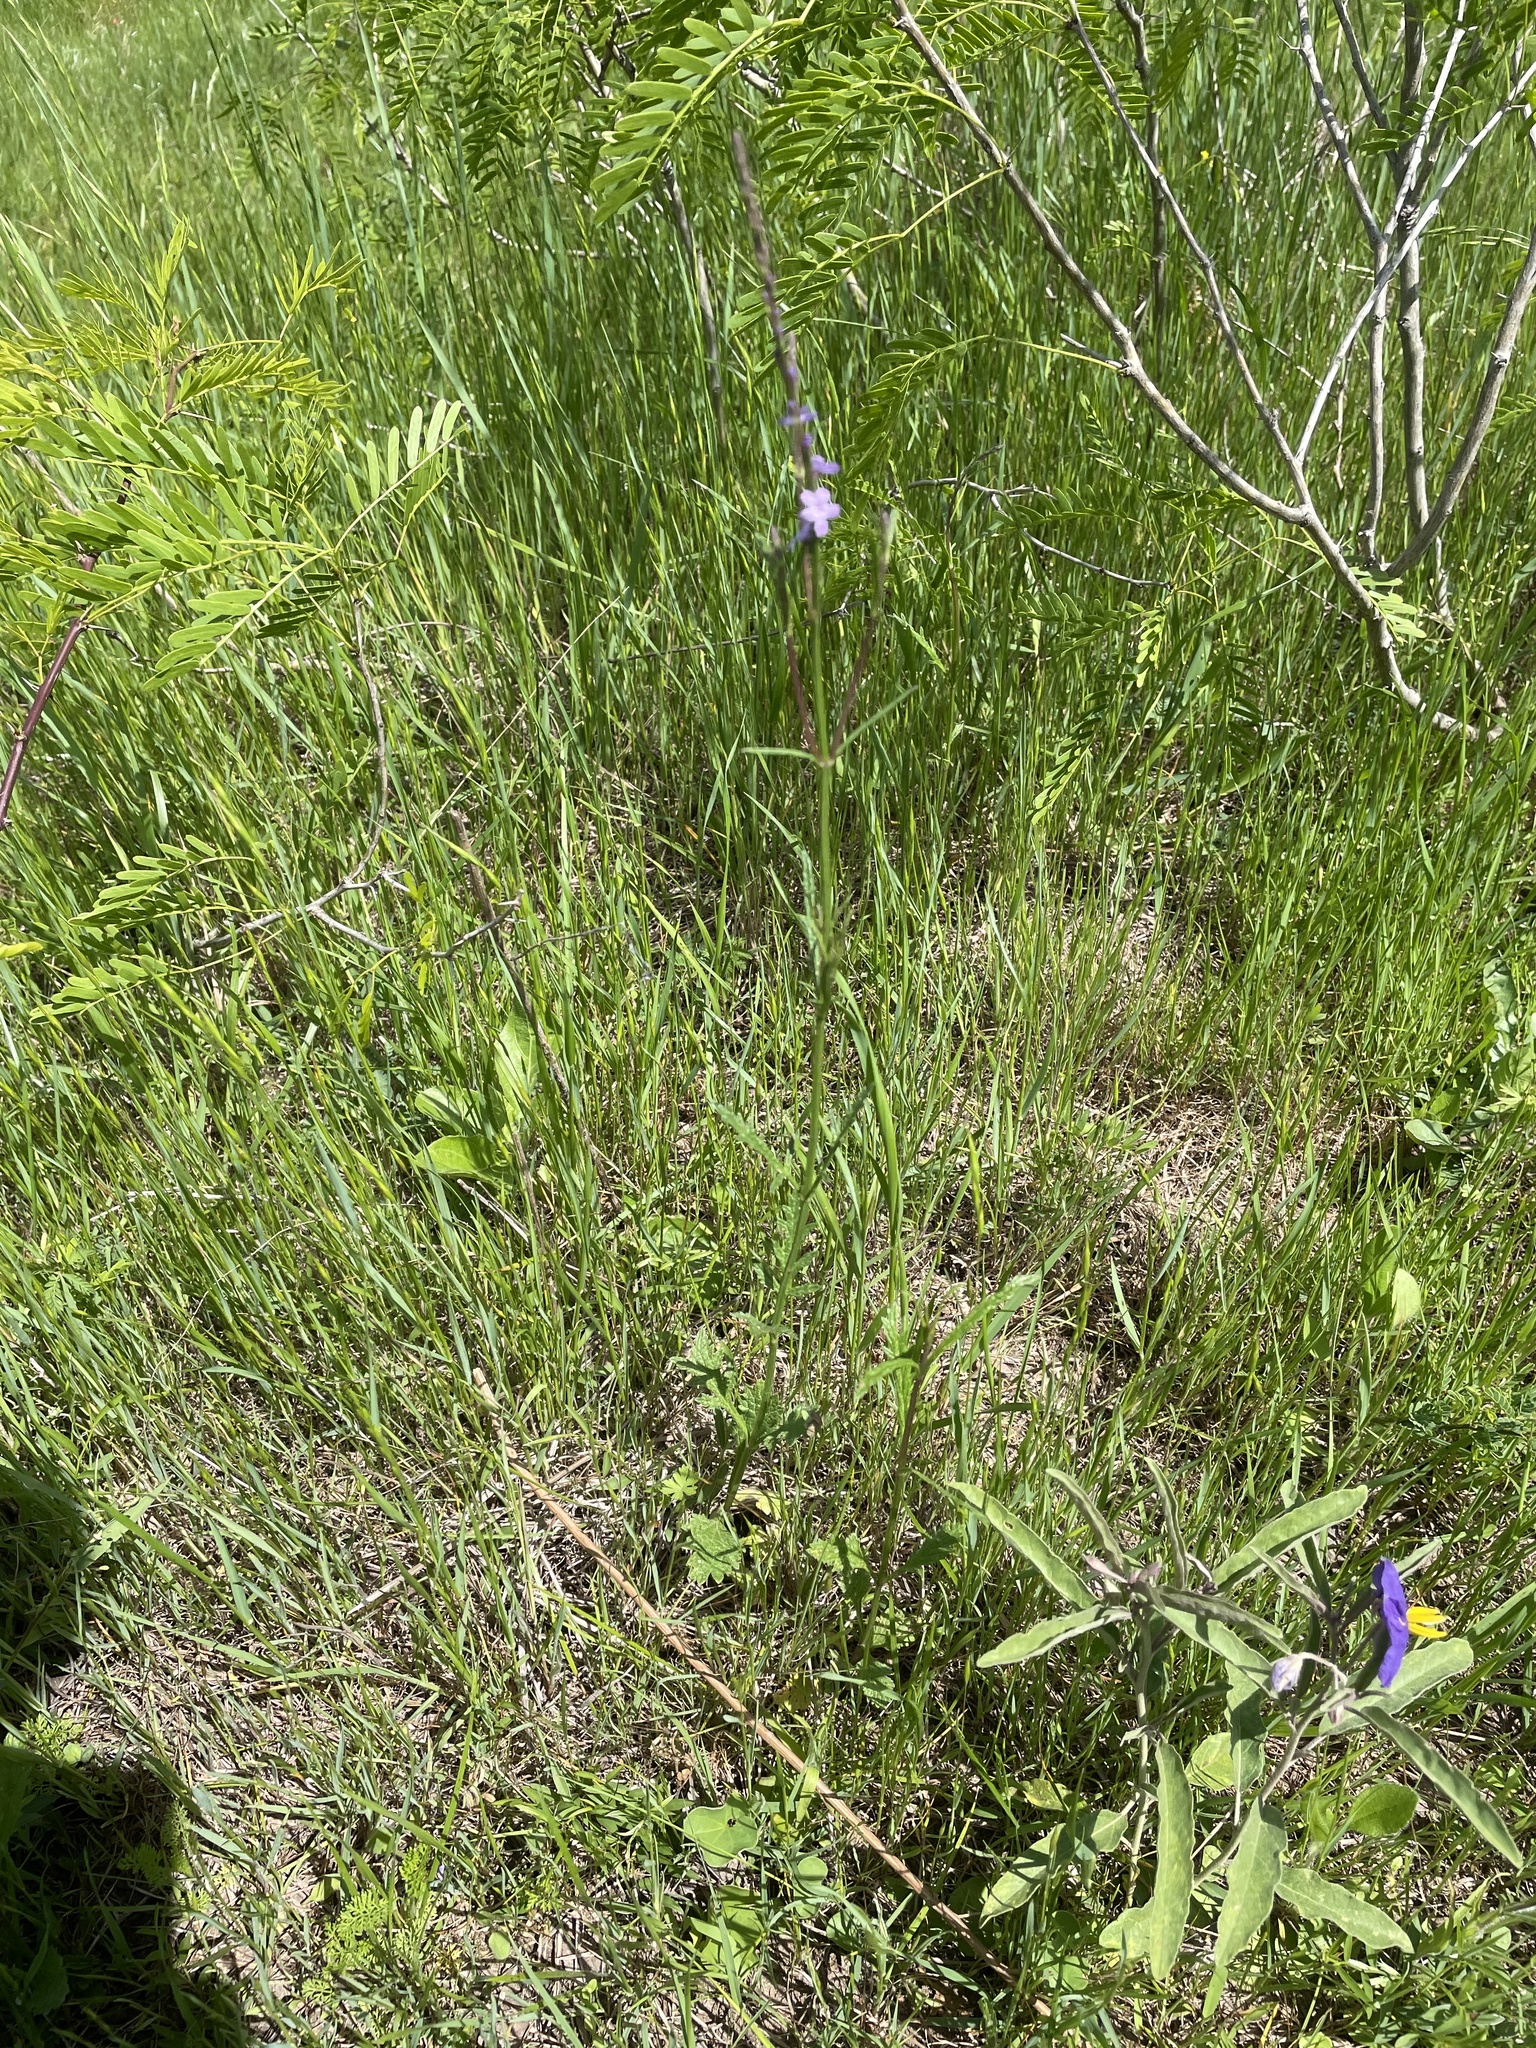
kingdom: Plantae
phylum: Tracheophyta
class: Magnoliopsida
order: Lamiales
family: Verbenaceae
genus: Verbena
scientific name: Verbena halei
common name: Texas vervain
